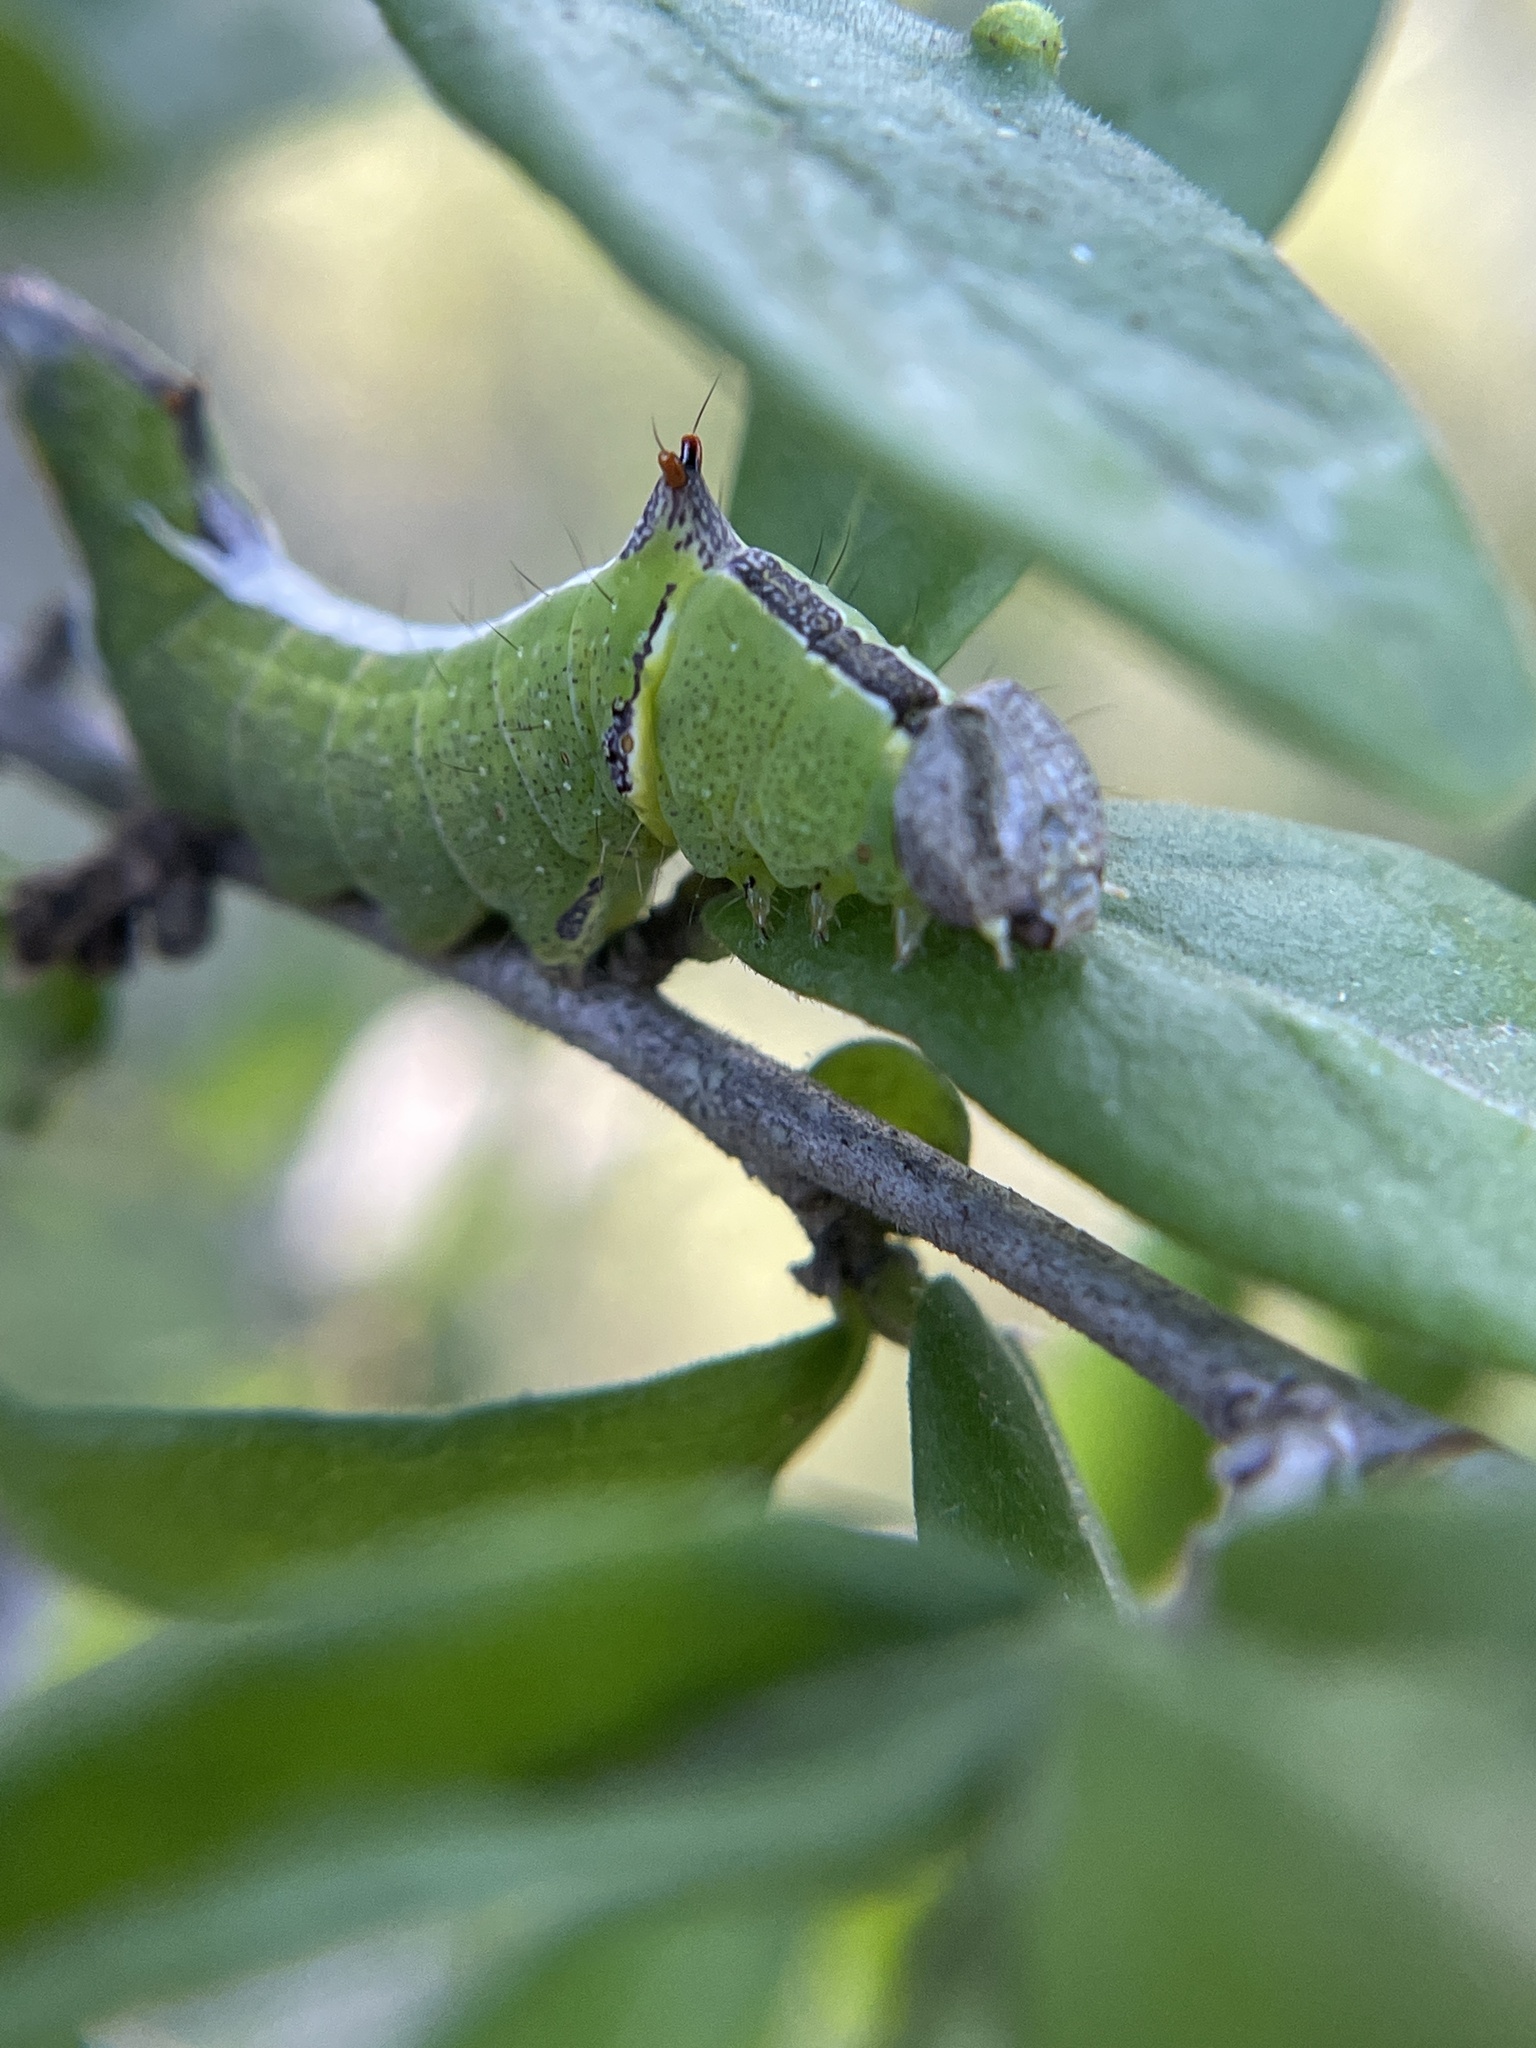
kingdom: Animalia
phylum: Arthropoda
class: Insecta
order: Lepidoptera
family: Notodontidae
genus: Schizura
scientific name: Schizura
